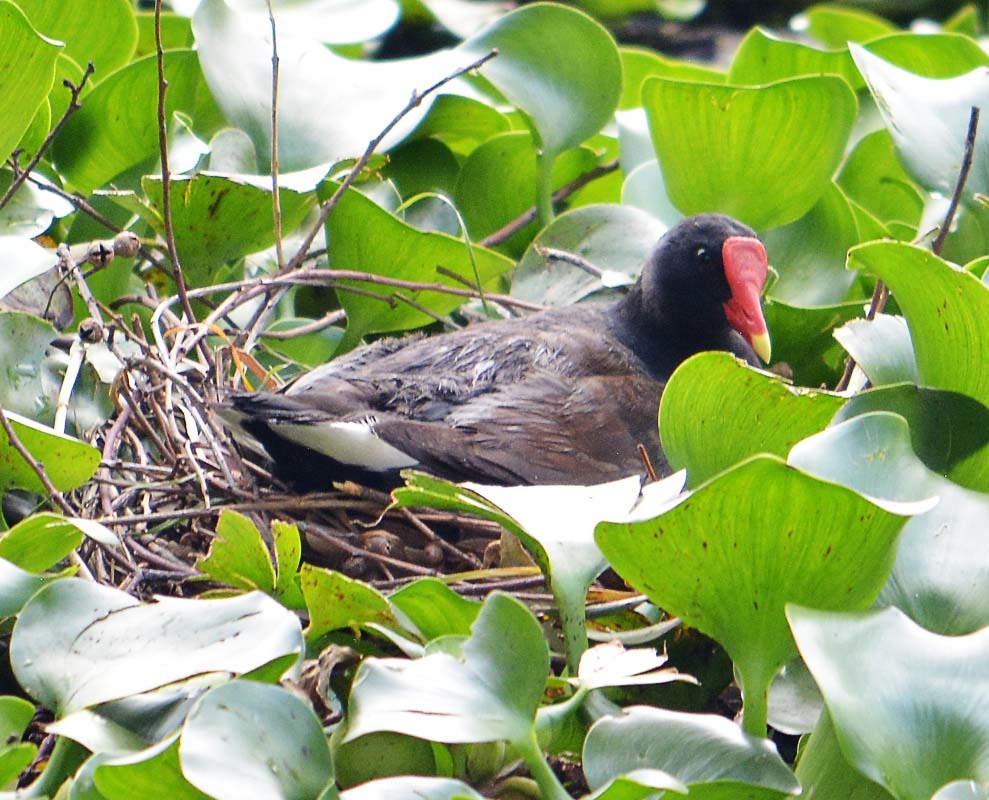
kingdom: Animalia
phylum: Chordata
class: Aves
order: Gruiformes
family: Rallidae
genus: Gallinula
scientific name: Gallinula chloropus
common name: Common moorhen
